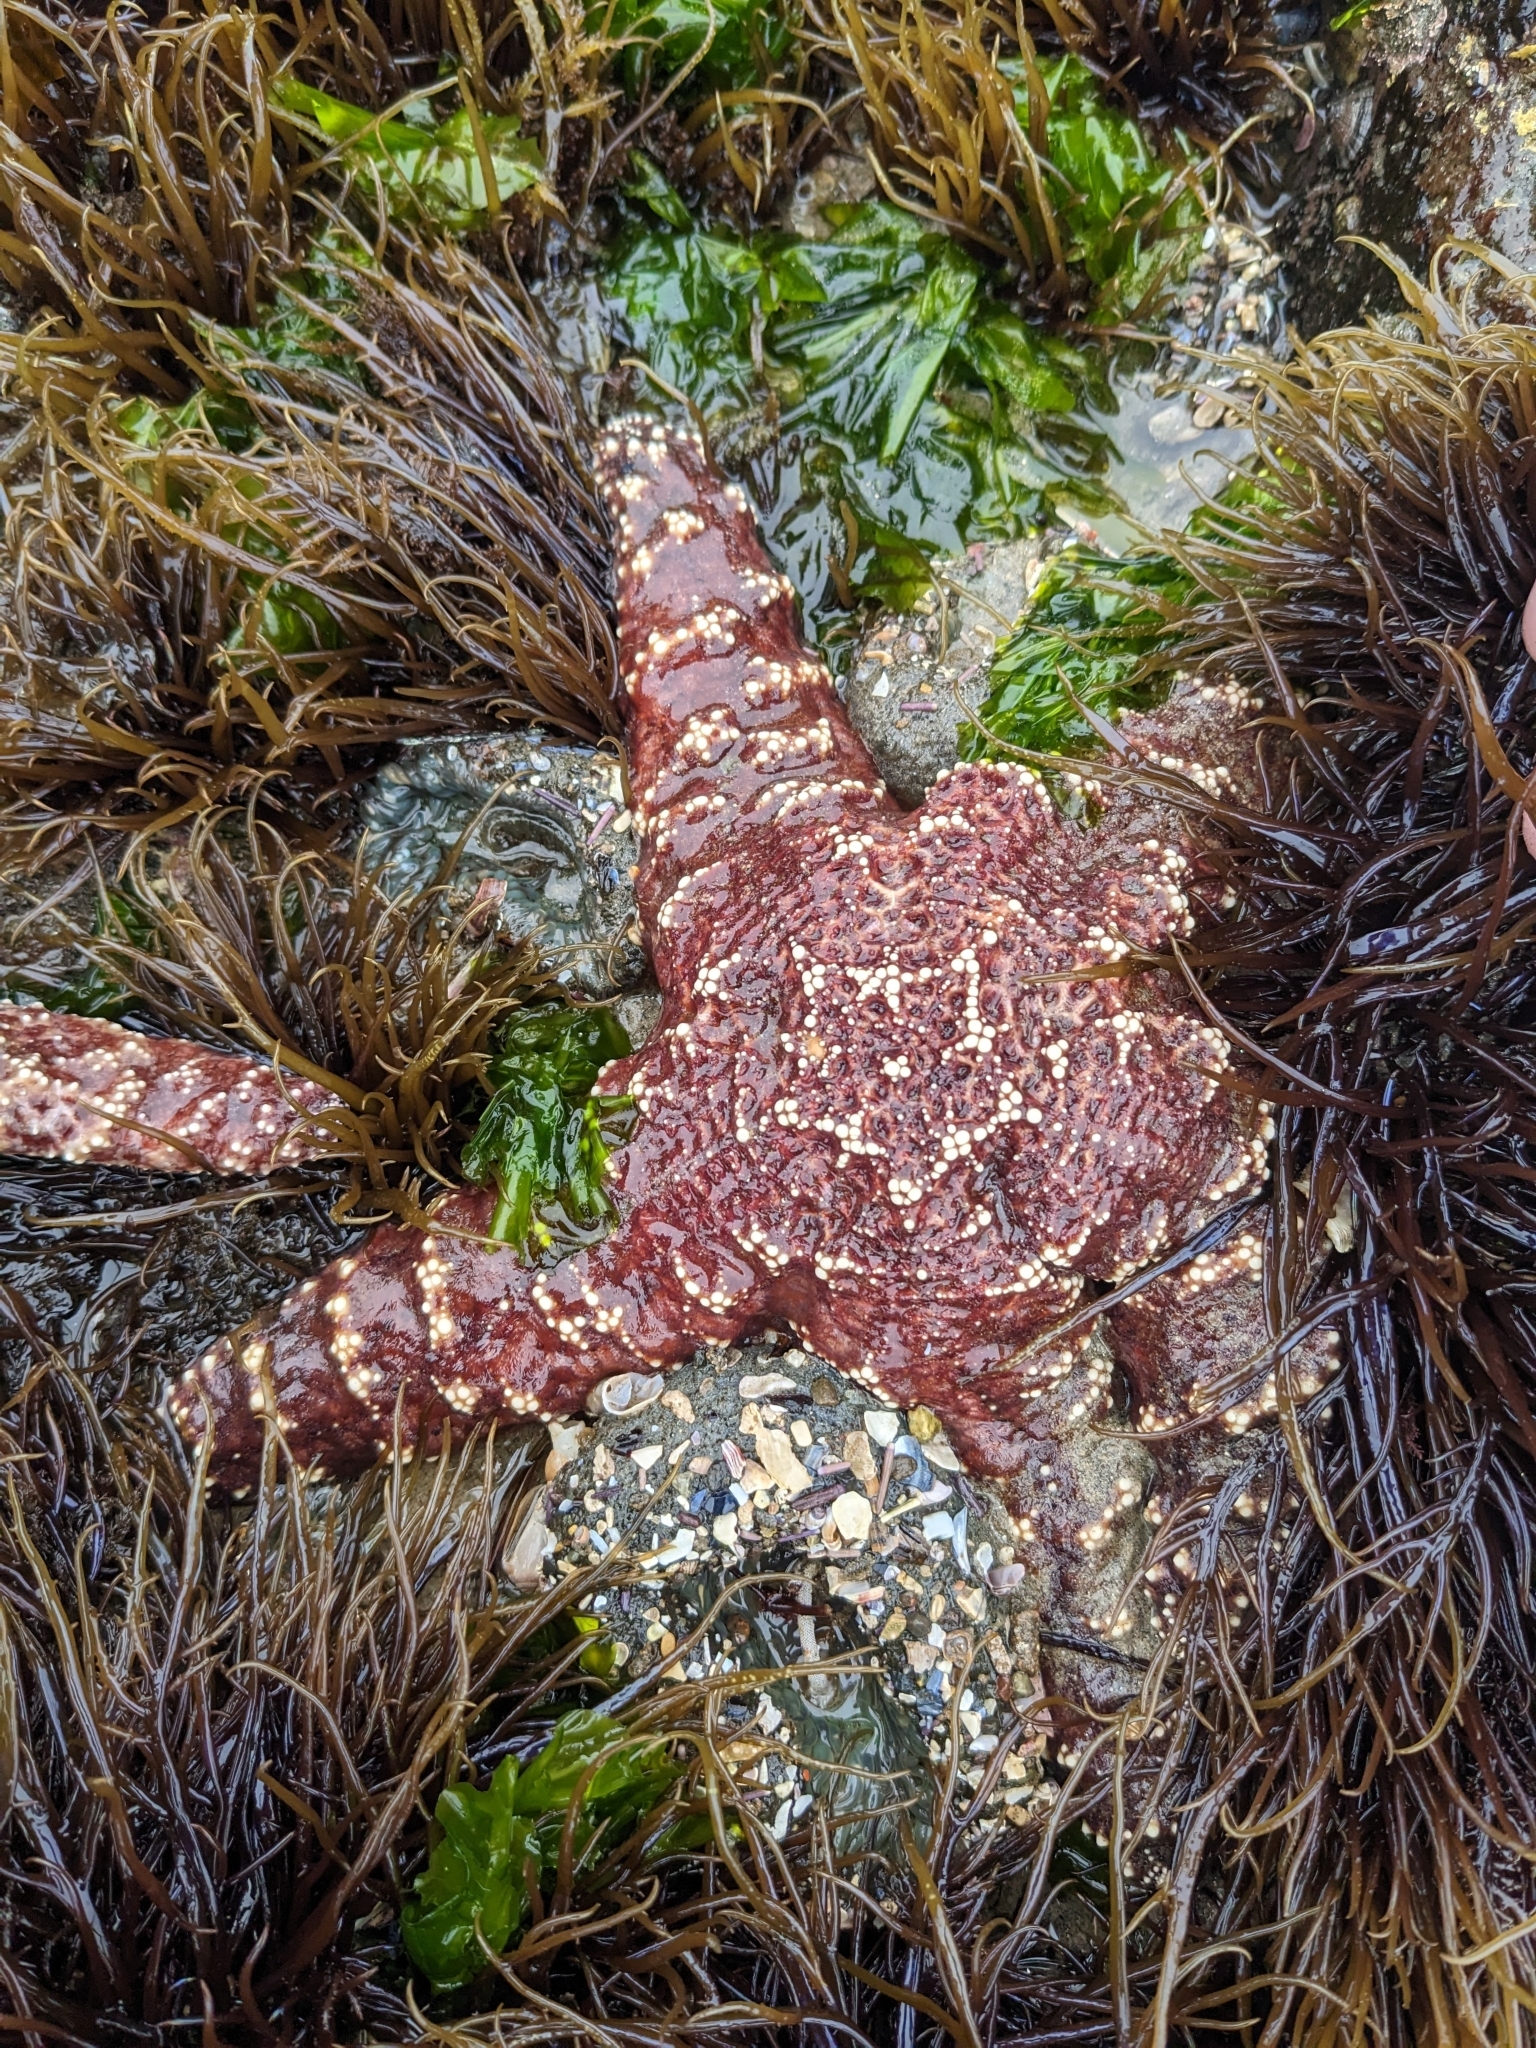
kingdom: Animalia
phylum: Echinodermata
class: Asteroidea
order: Forcipulatida
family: Asteriidae
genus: Pisaster
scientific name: Pisaster ochraceus
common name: Ochre stars
